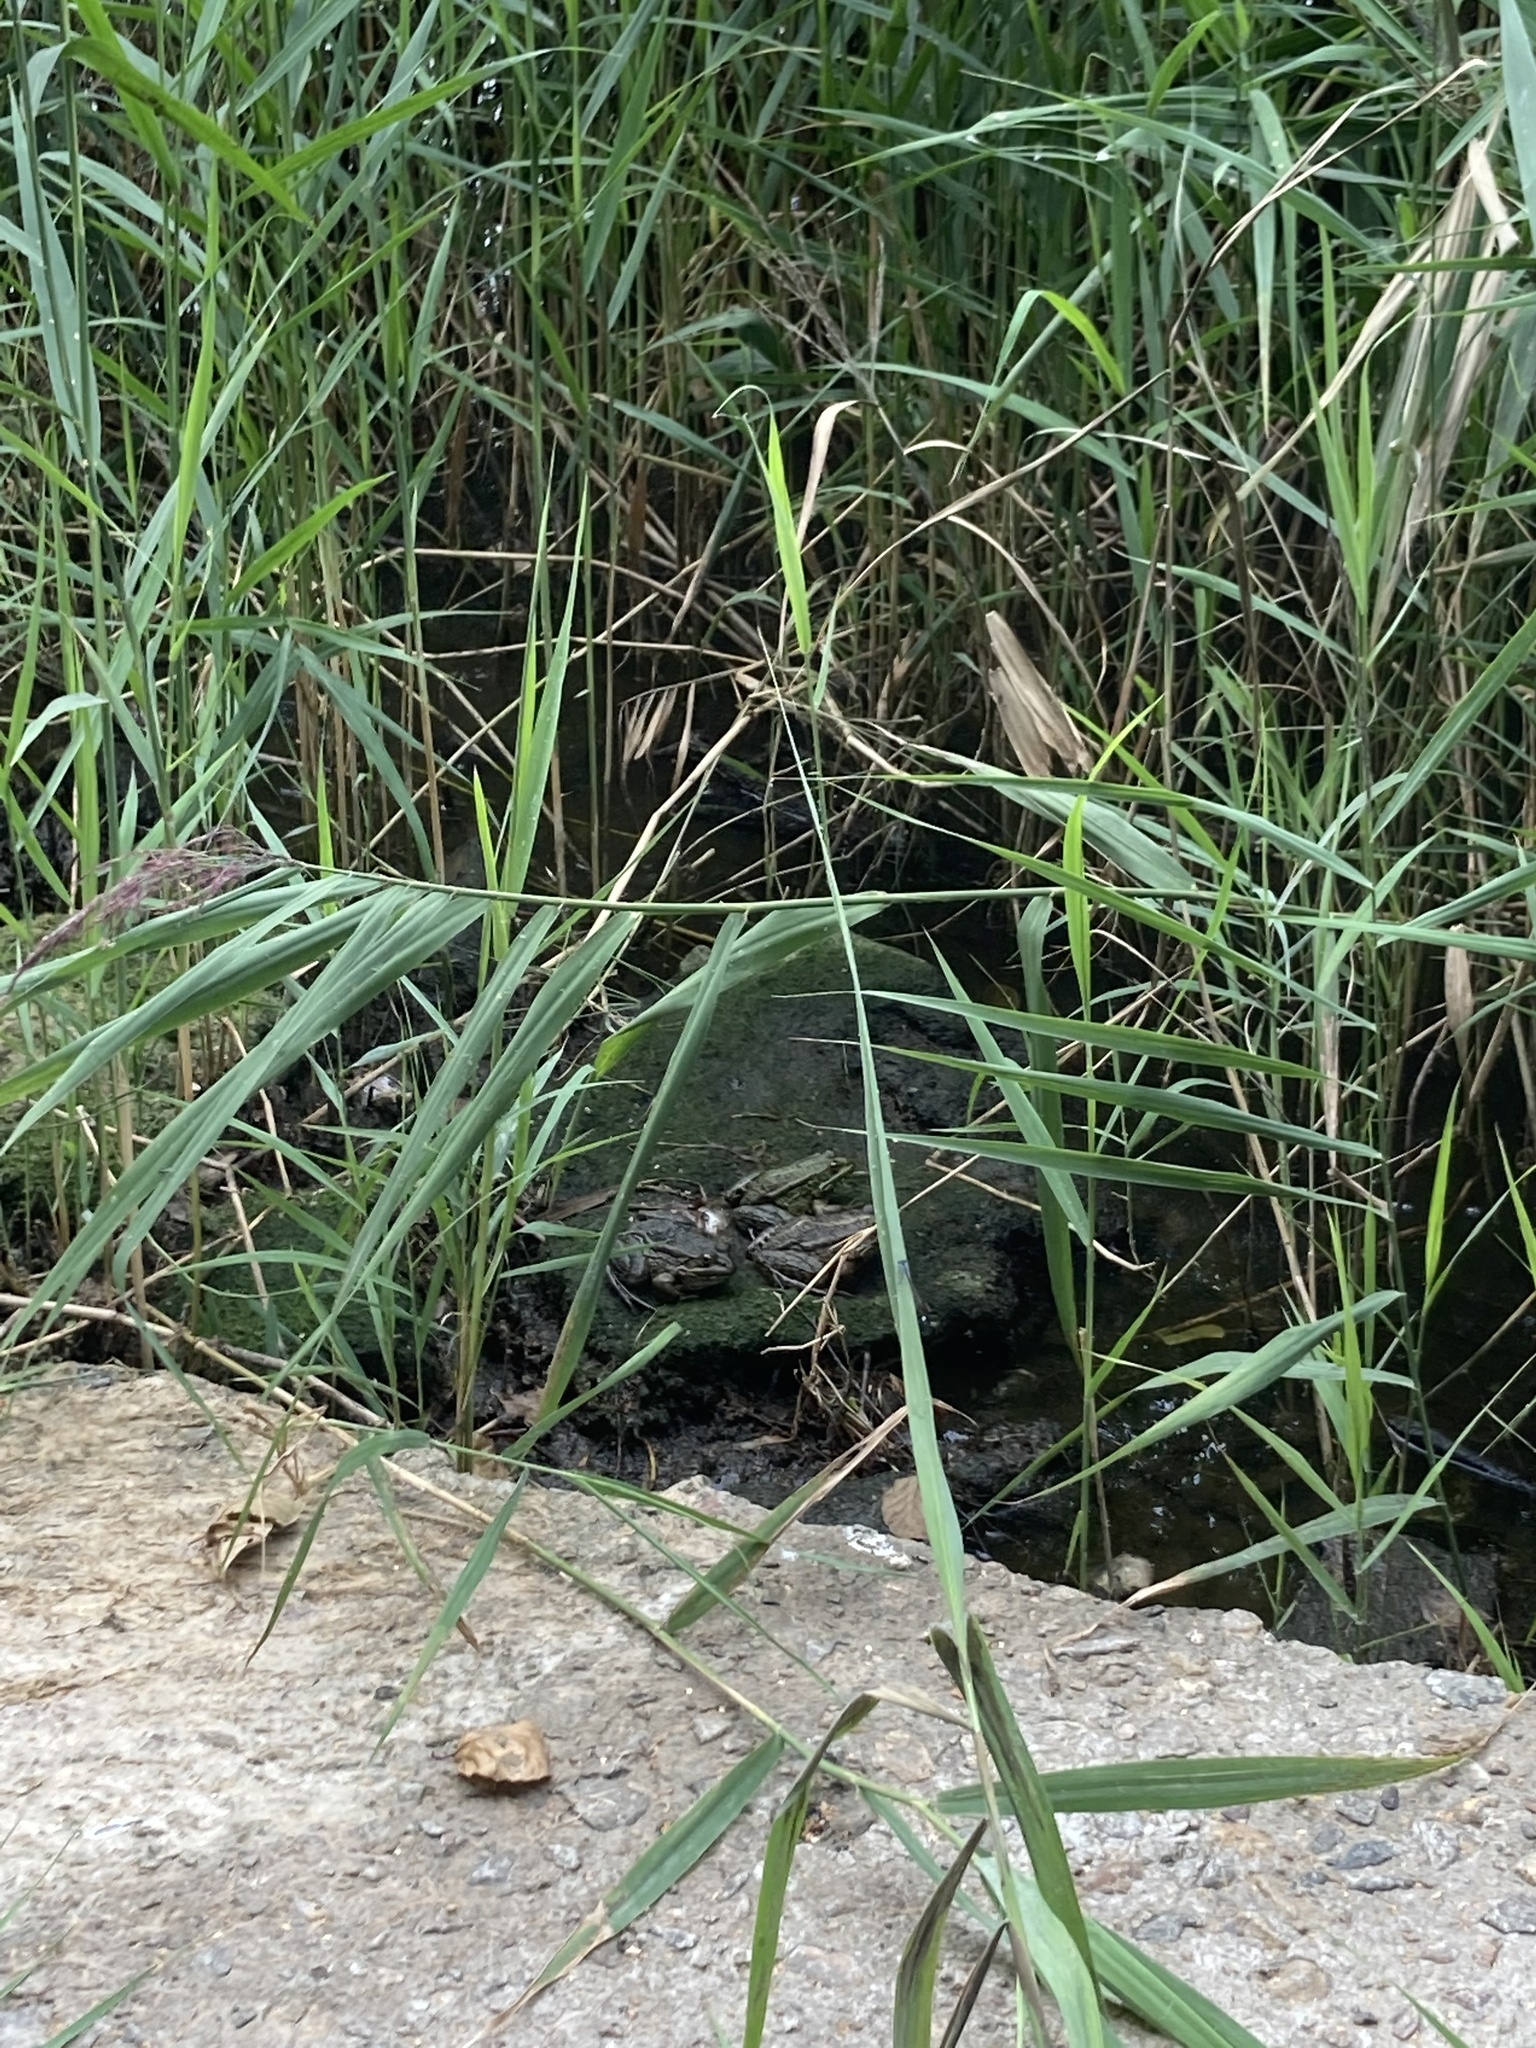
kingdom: Animalia
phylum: Chordata
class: Amphibia
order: Anura
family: Ranidae
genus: Pelophylax
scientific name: Pelophylax ridibundus
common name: Marsh frog
